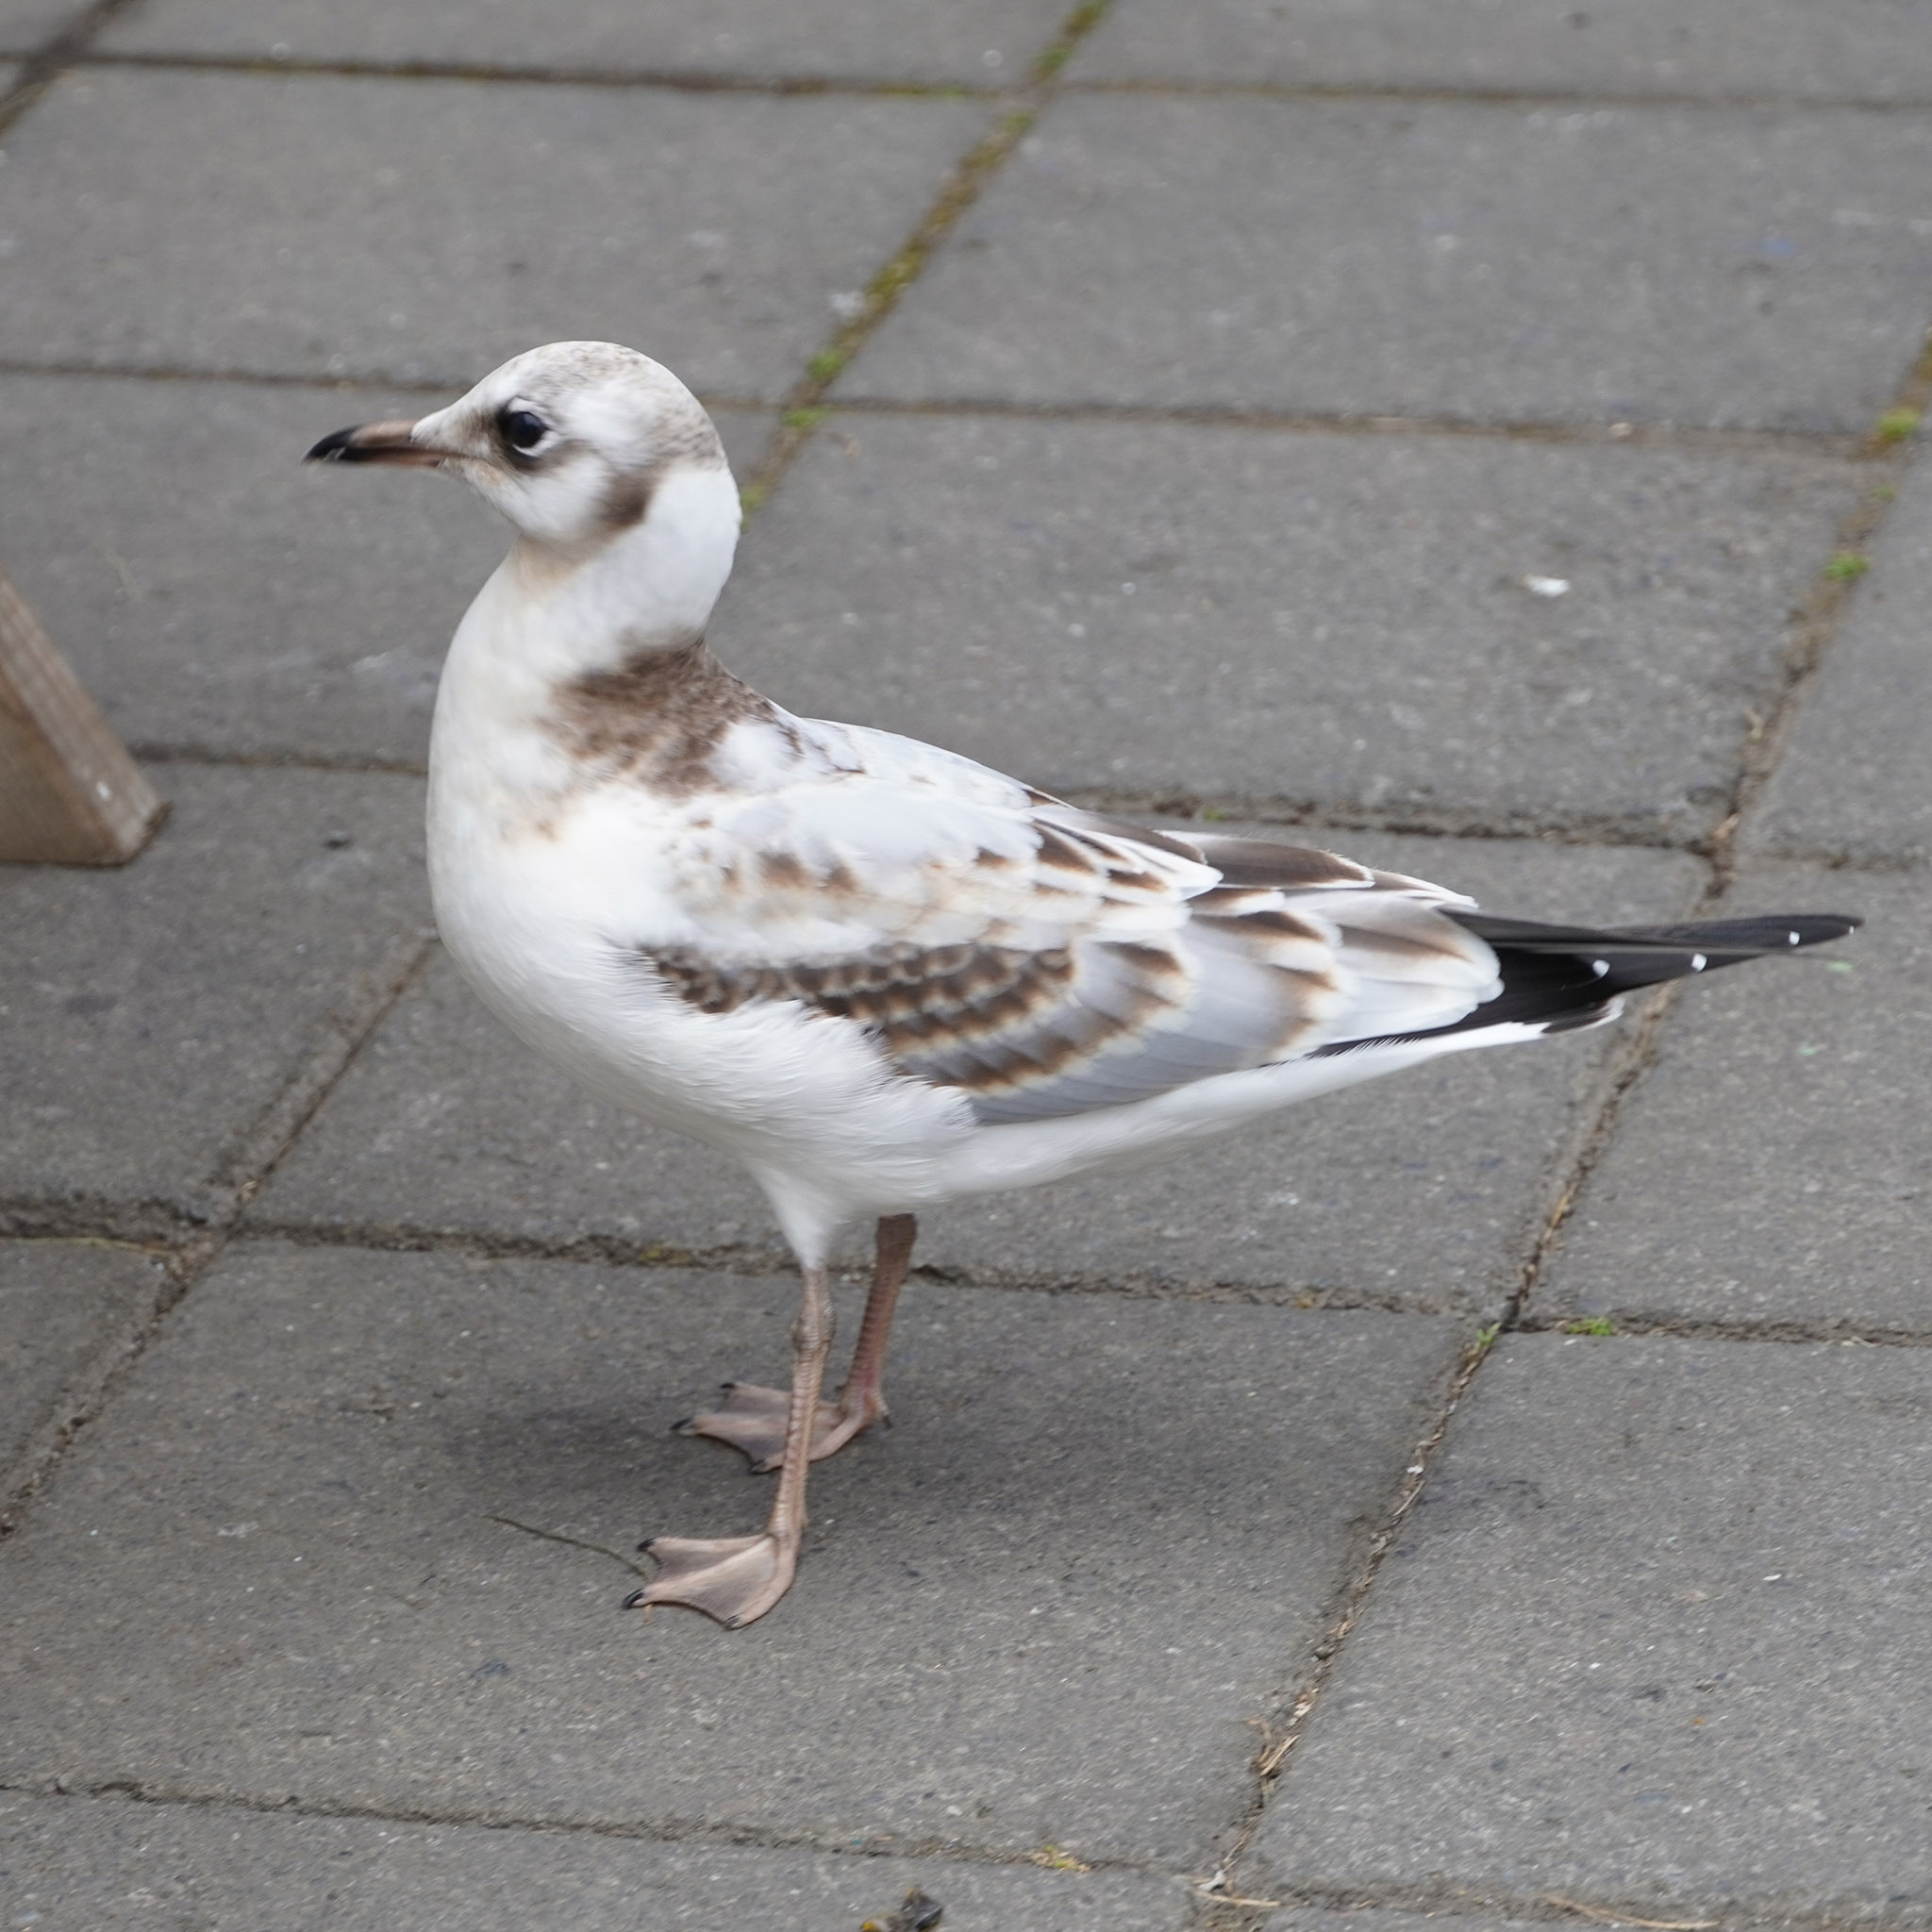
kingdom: Animalia
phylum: Chordata
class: Aves
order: Charadriiformes
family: Laridae
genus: Chroicocephalus
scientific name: Chroicocephalus ridibundus
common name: Black-headed gull
